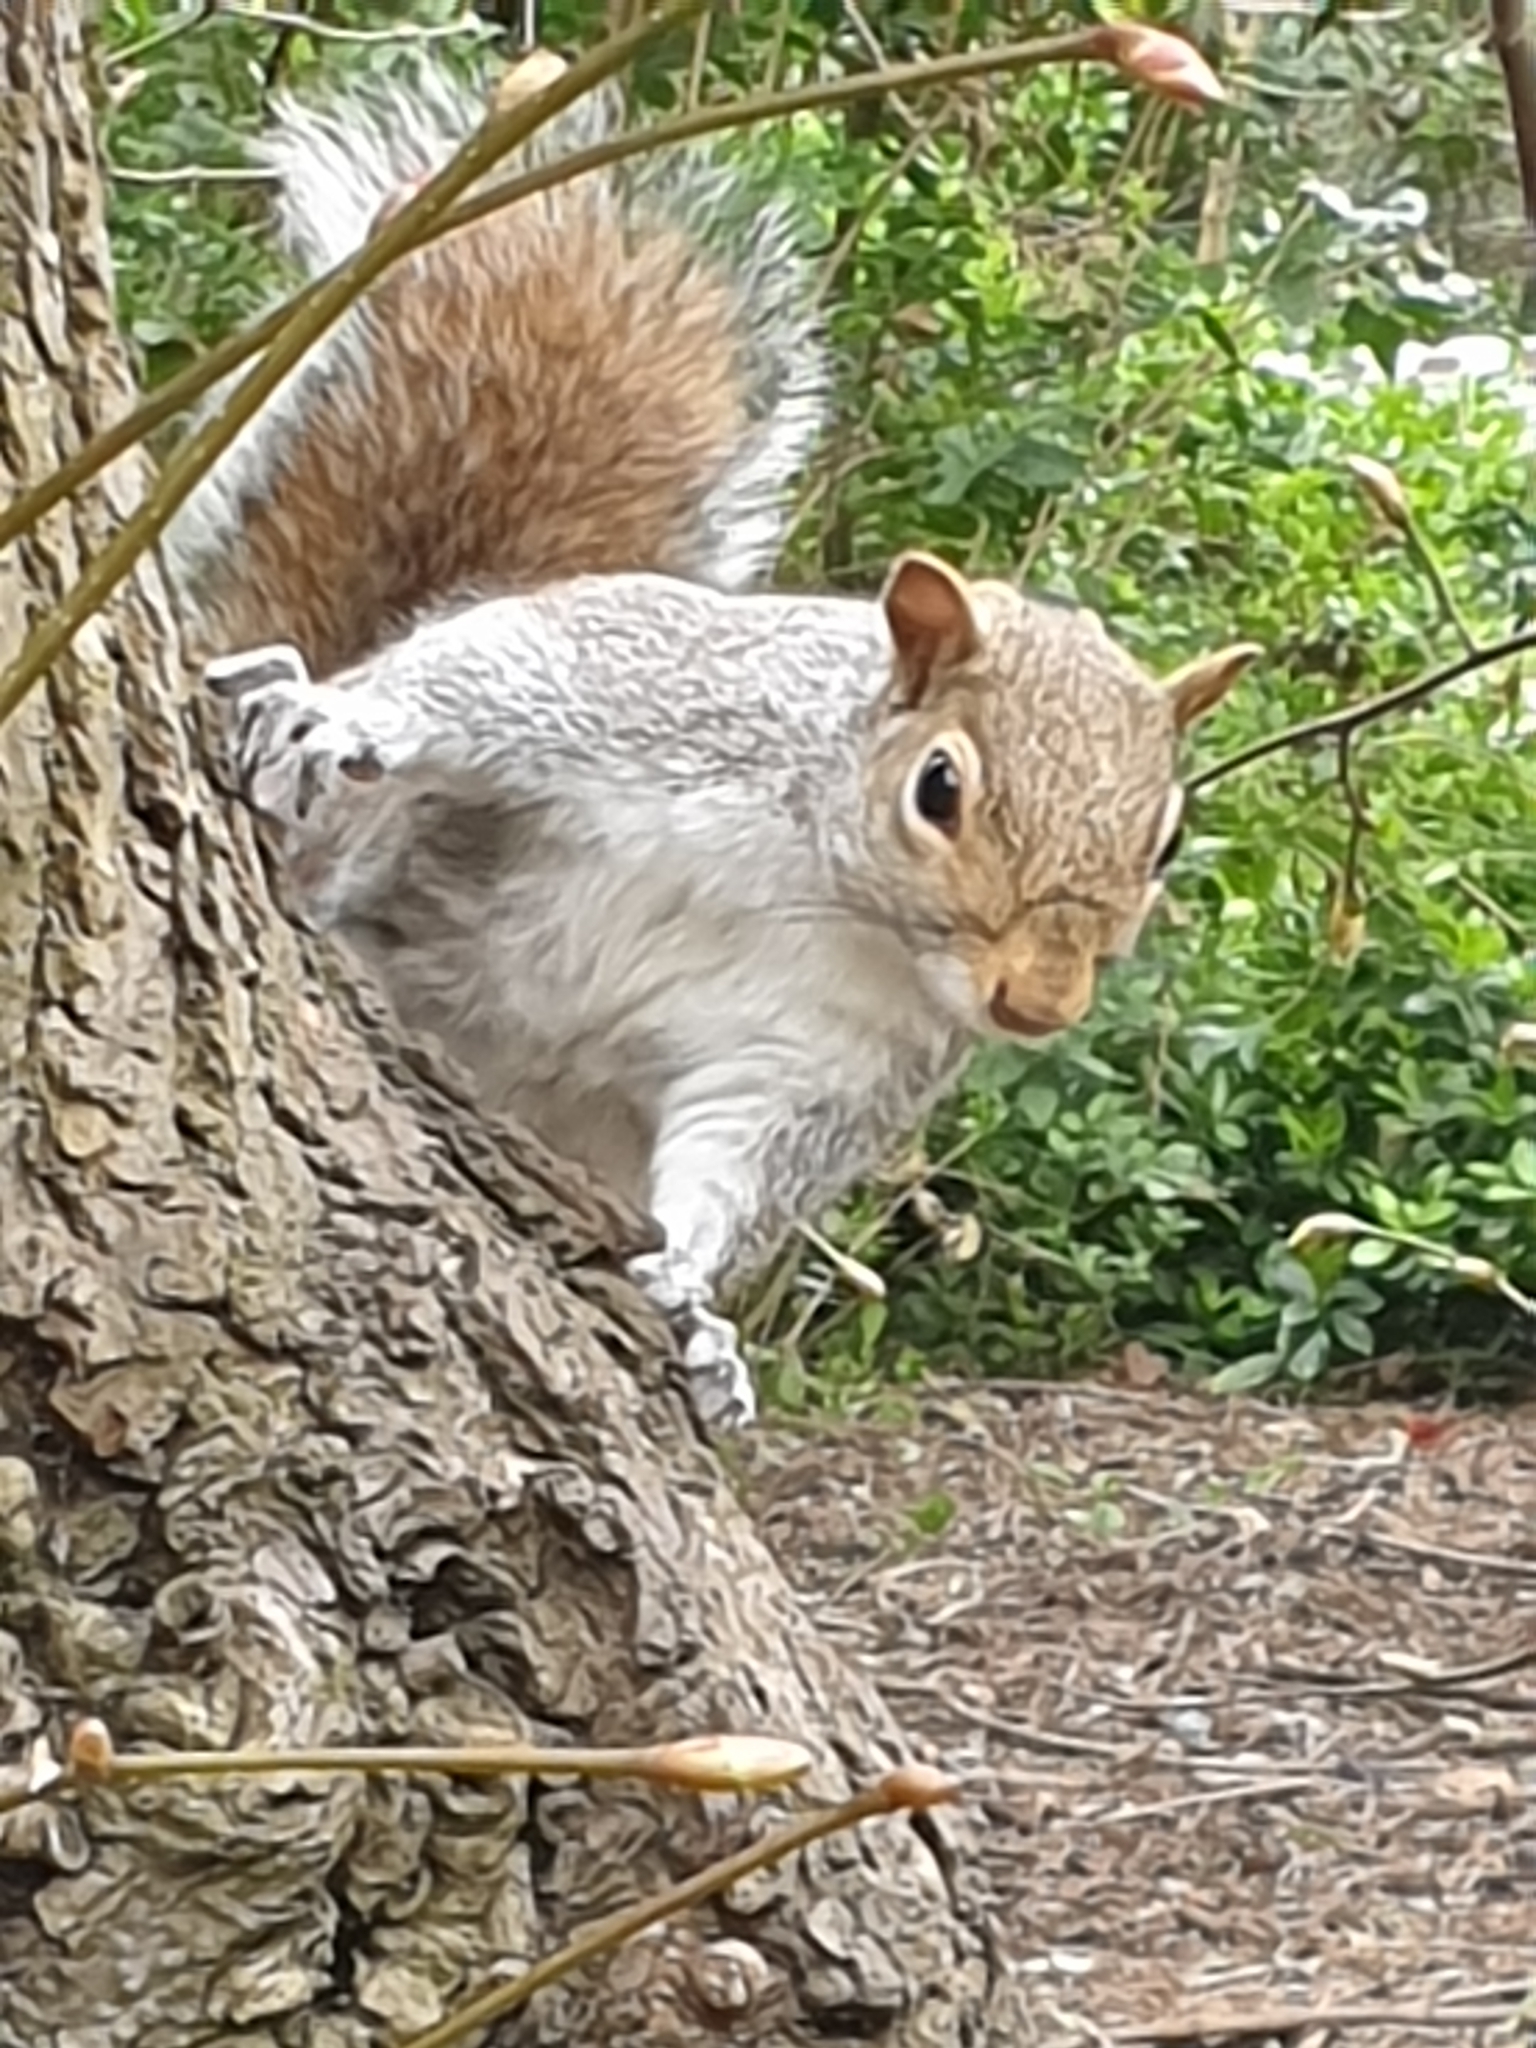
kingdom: Animalia
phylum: Chordata
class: Mammalia
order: Rodentia
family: Sciuridae
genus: Sciurus
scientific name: Sciurus carolinensis
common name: Eastern gray squirrel
